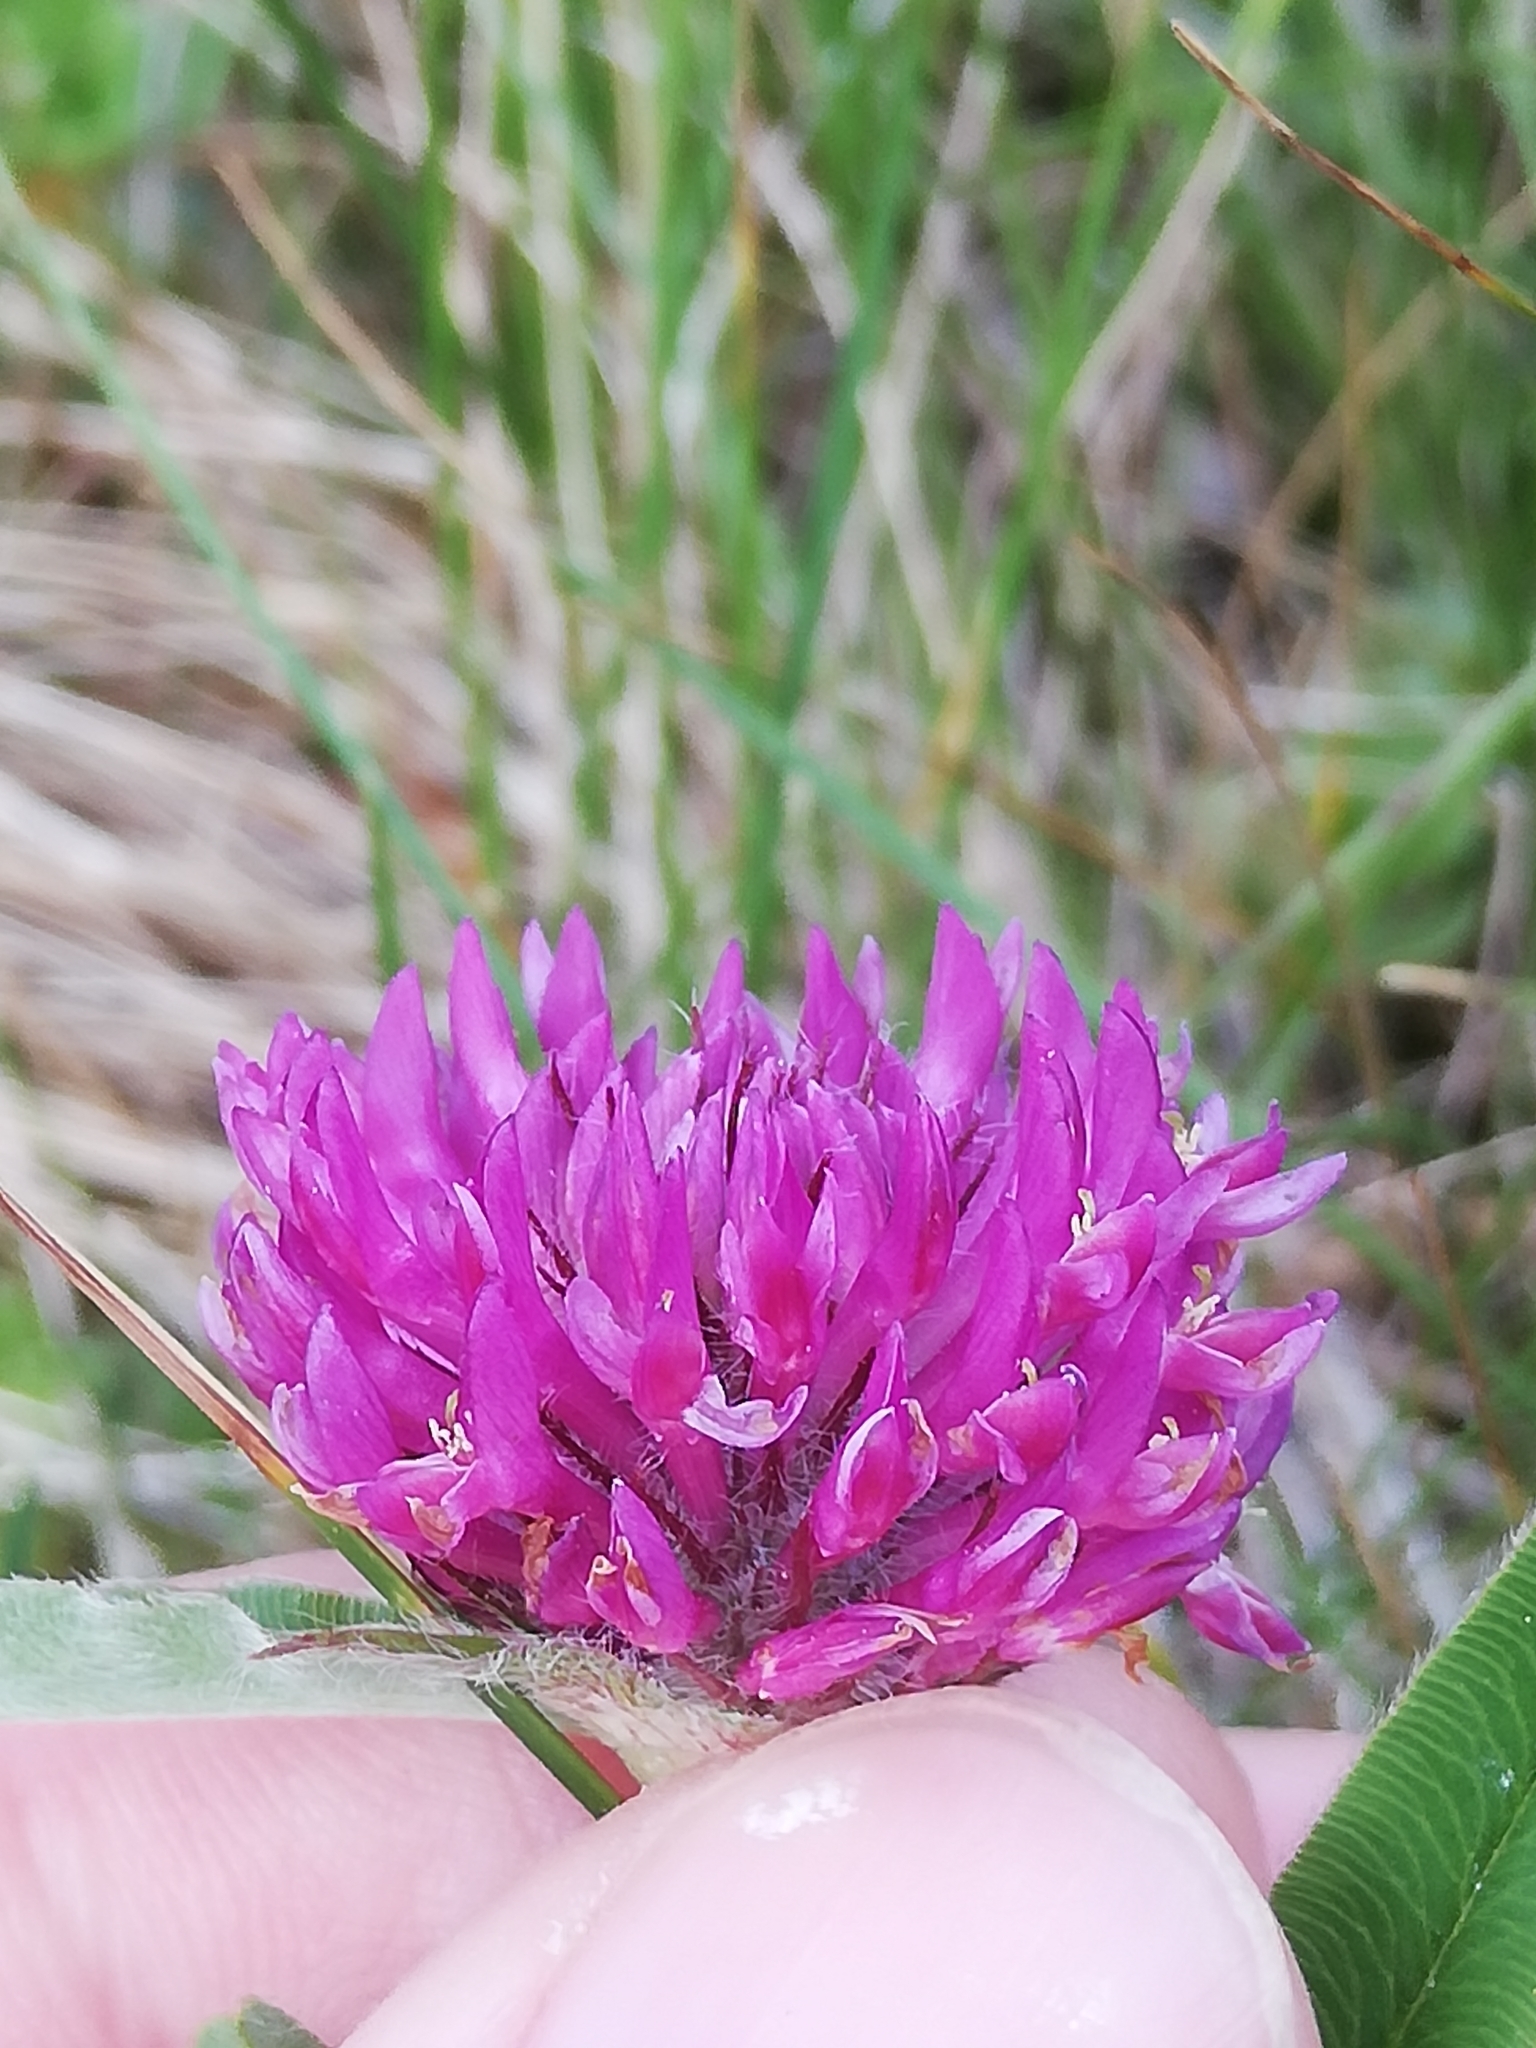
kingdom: Plantae
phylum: Tracheophyta
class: Magnoliopsida
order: Fabales
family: Fabaceae
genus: Trifolium
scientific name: Trifolium alpestre
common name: Owl-head clover
